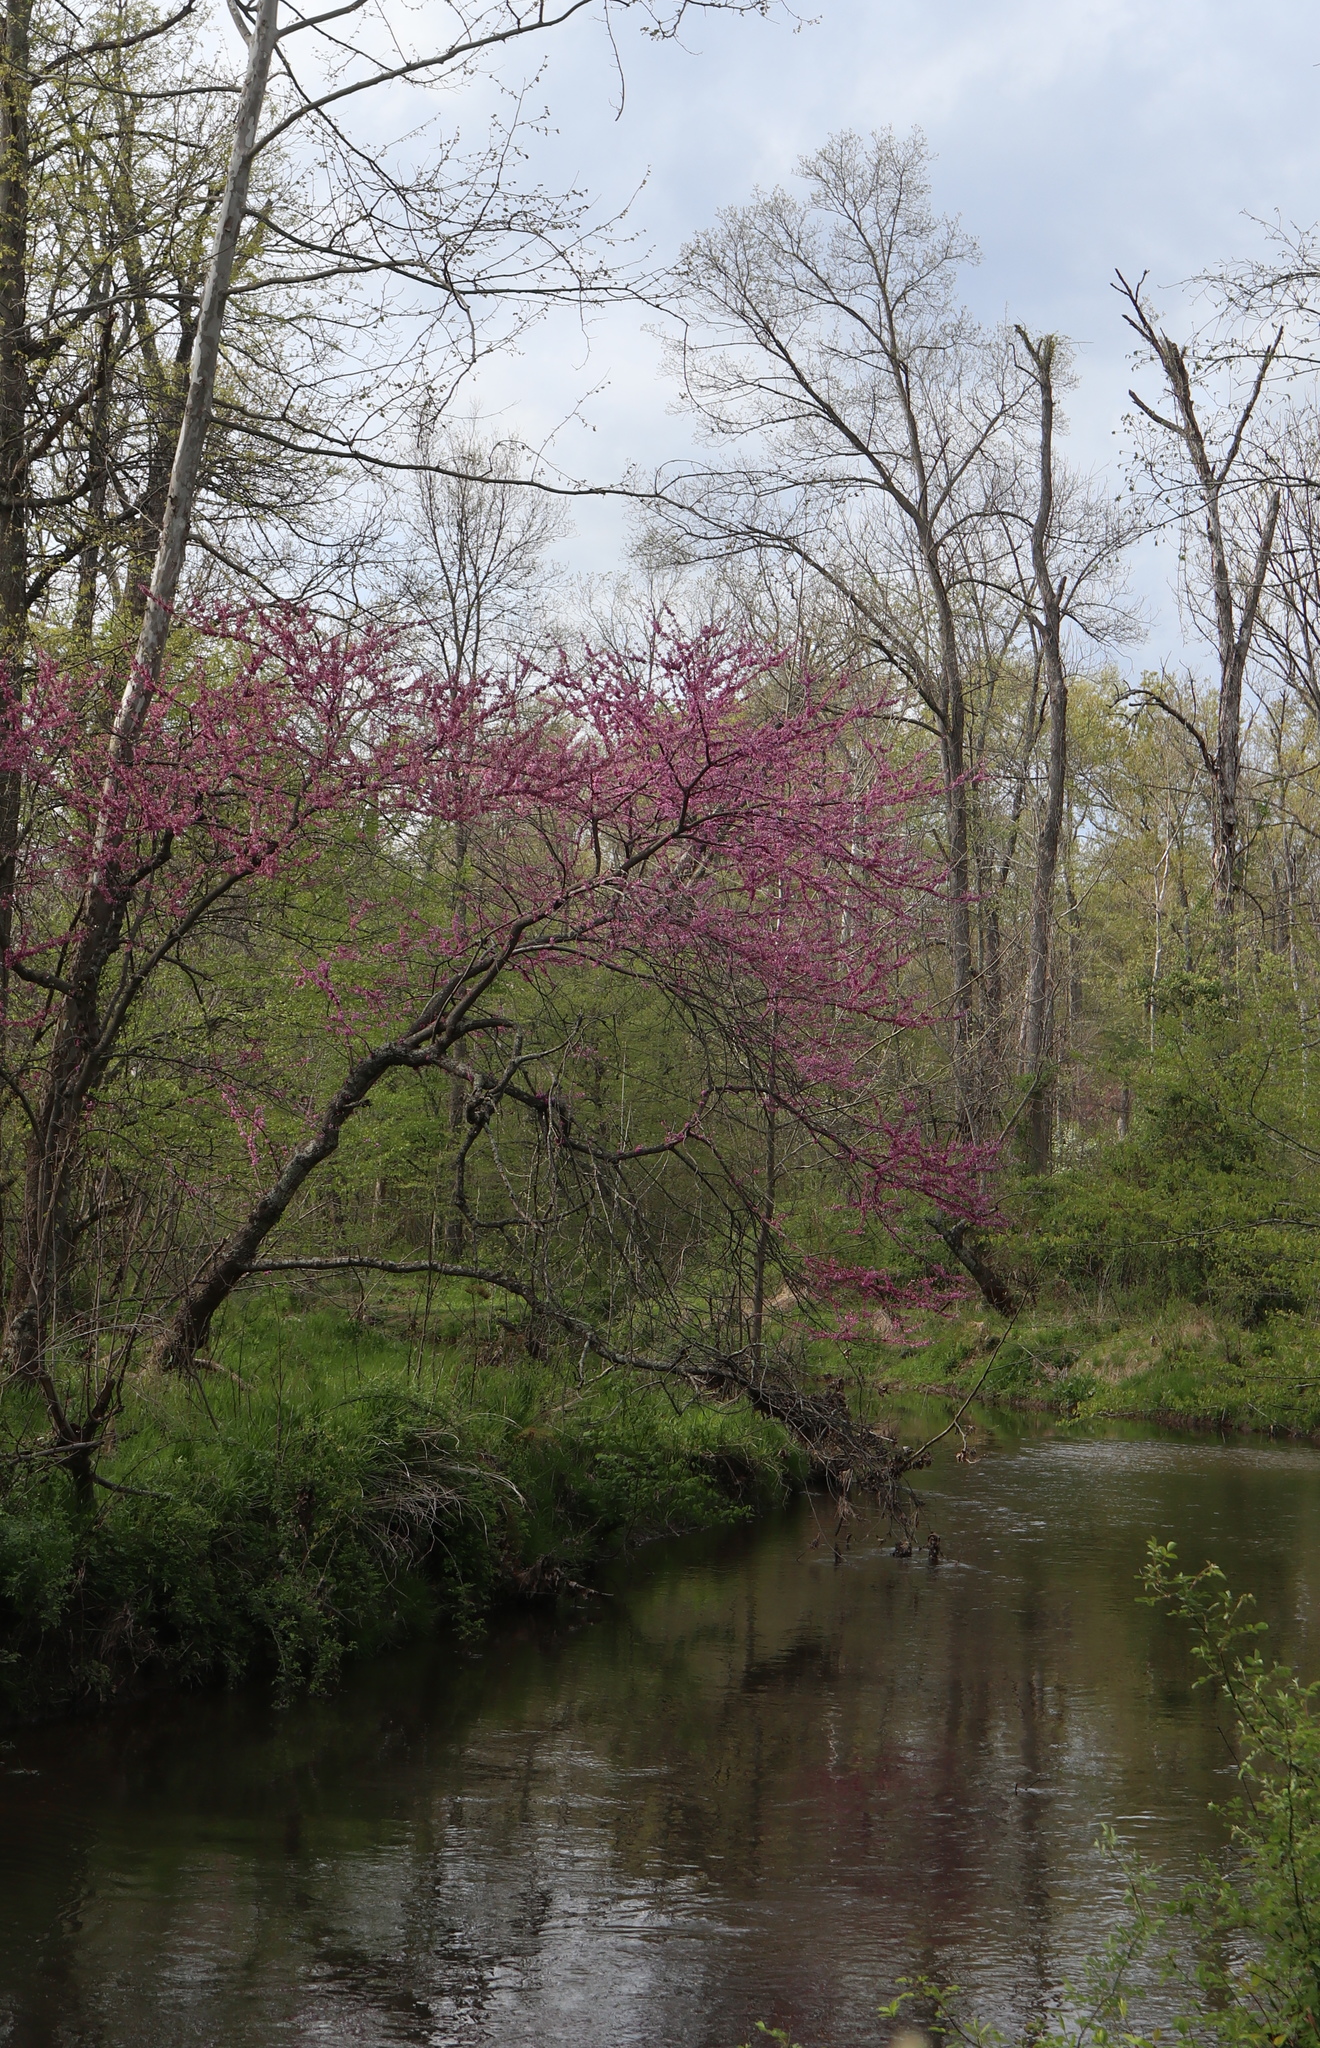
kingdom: Plantae
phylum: Tracheophyta
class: Magnoliopsida
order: Fabales
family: Fabaceae
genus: Cercis
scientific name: Cercis canadensis
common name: Eastern redbud
